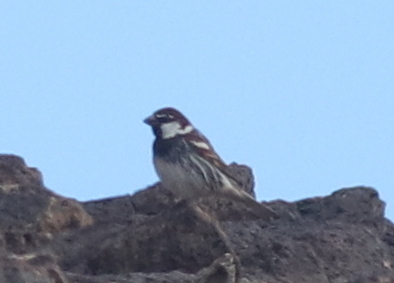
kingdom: Animalia
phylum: Chordata
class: Aves
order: Passeriformes
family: Passeridae
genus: Passer
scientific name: Passer hispaniolensis
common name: Spanish sparrow
